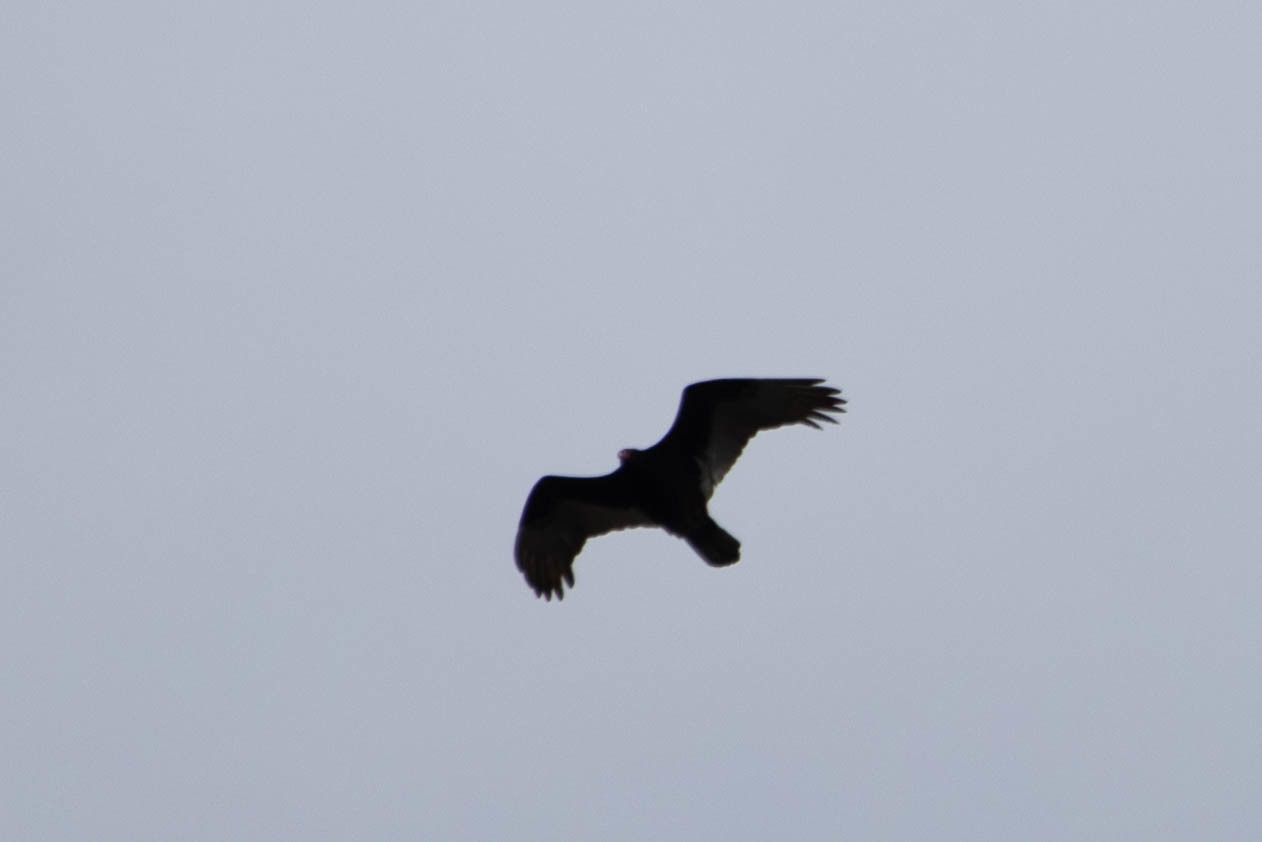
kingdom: Animalia
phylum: Chordata
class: Aves
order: Accipitriformes
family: Cathartidae
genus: Cathartes
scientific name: Cathartes aura
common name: Turkey vulture
